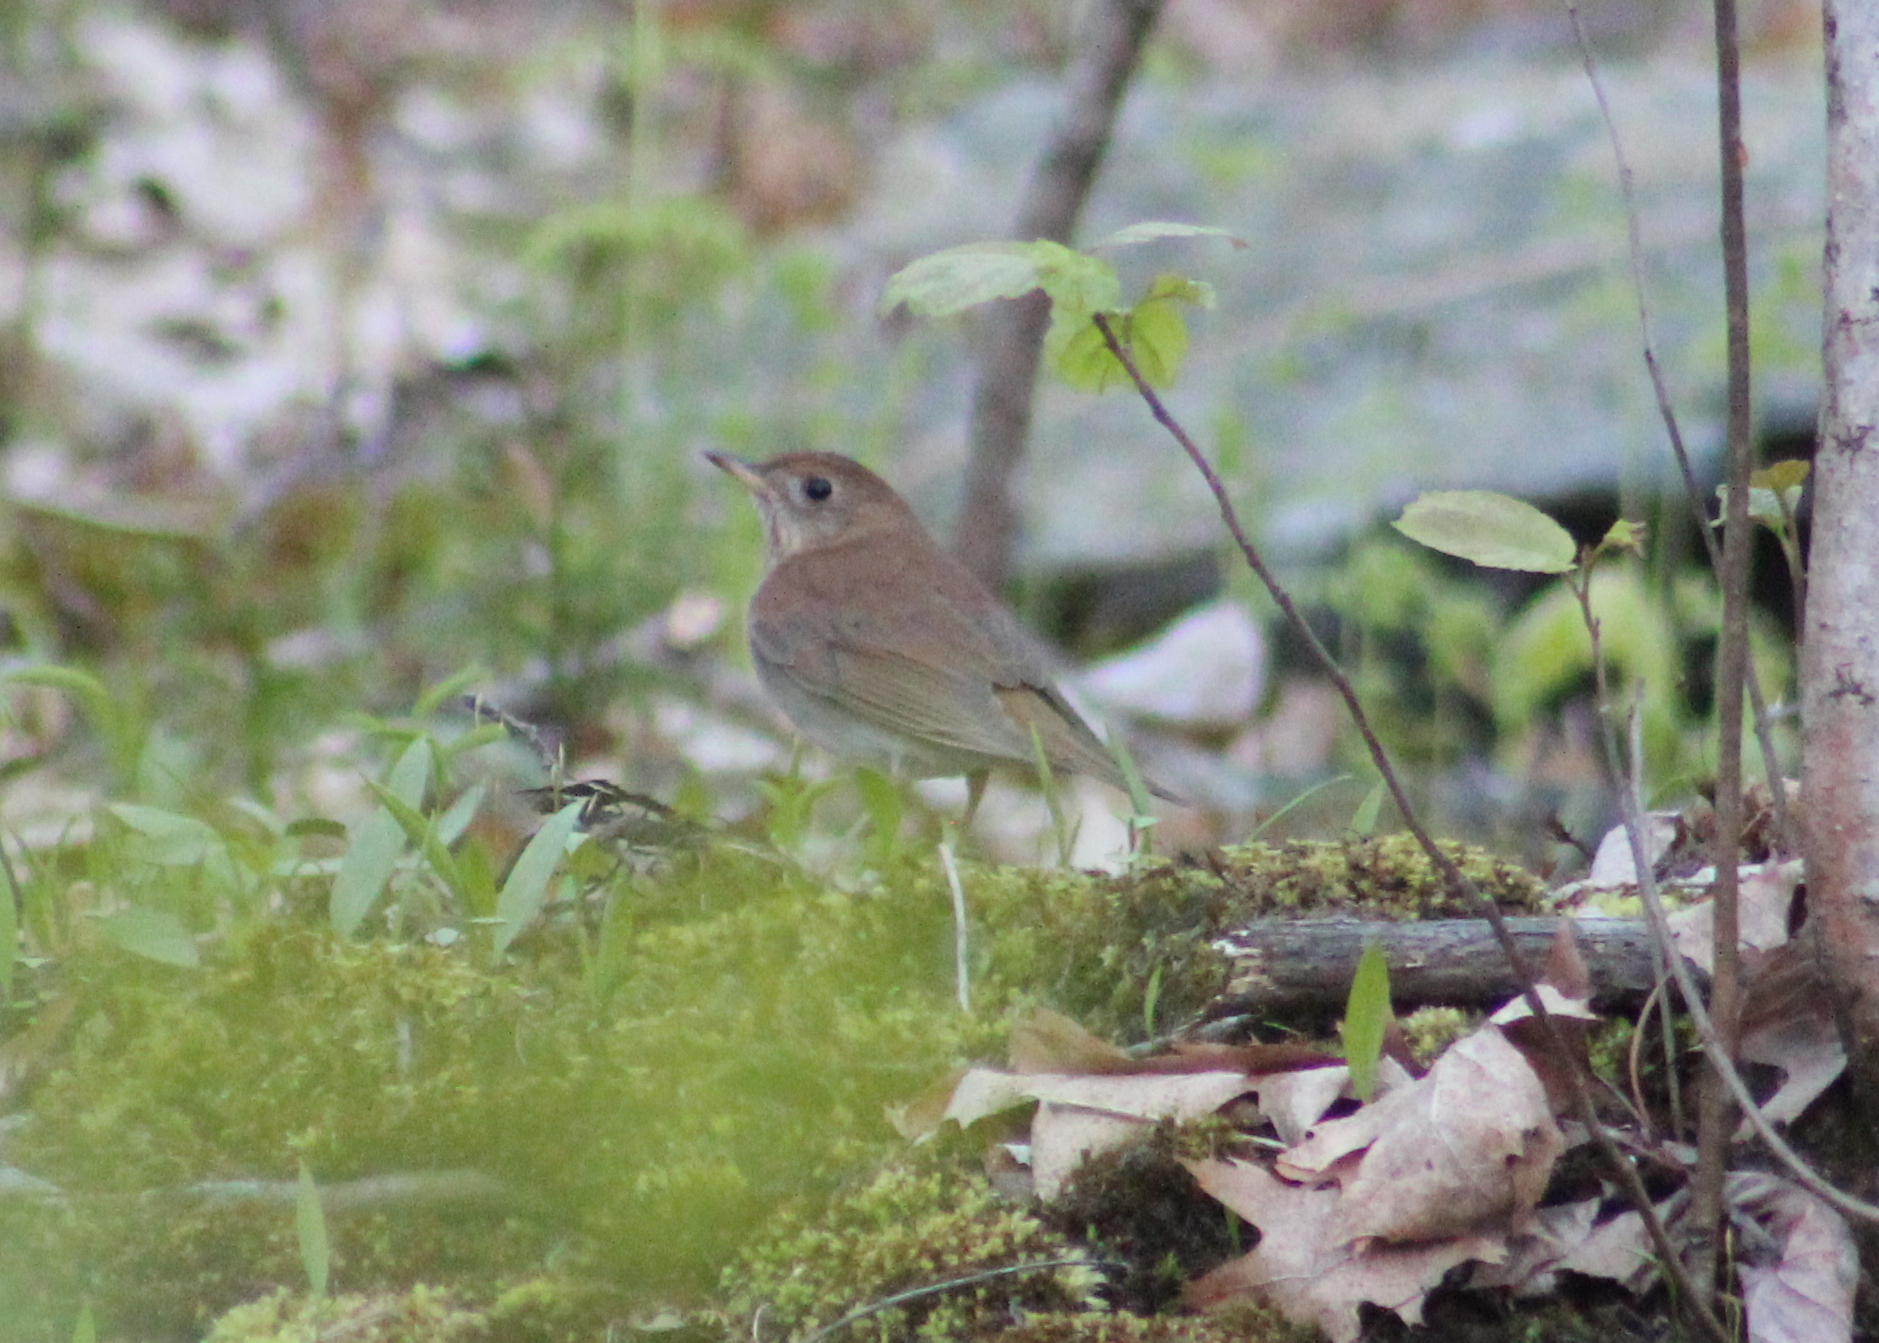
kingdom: Animalia
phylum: Chordata
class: Aves
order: Passeriformes
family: Turdidae
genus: Catharus
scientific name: Catharus fuscescens
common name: Veery
